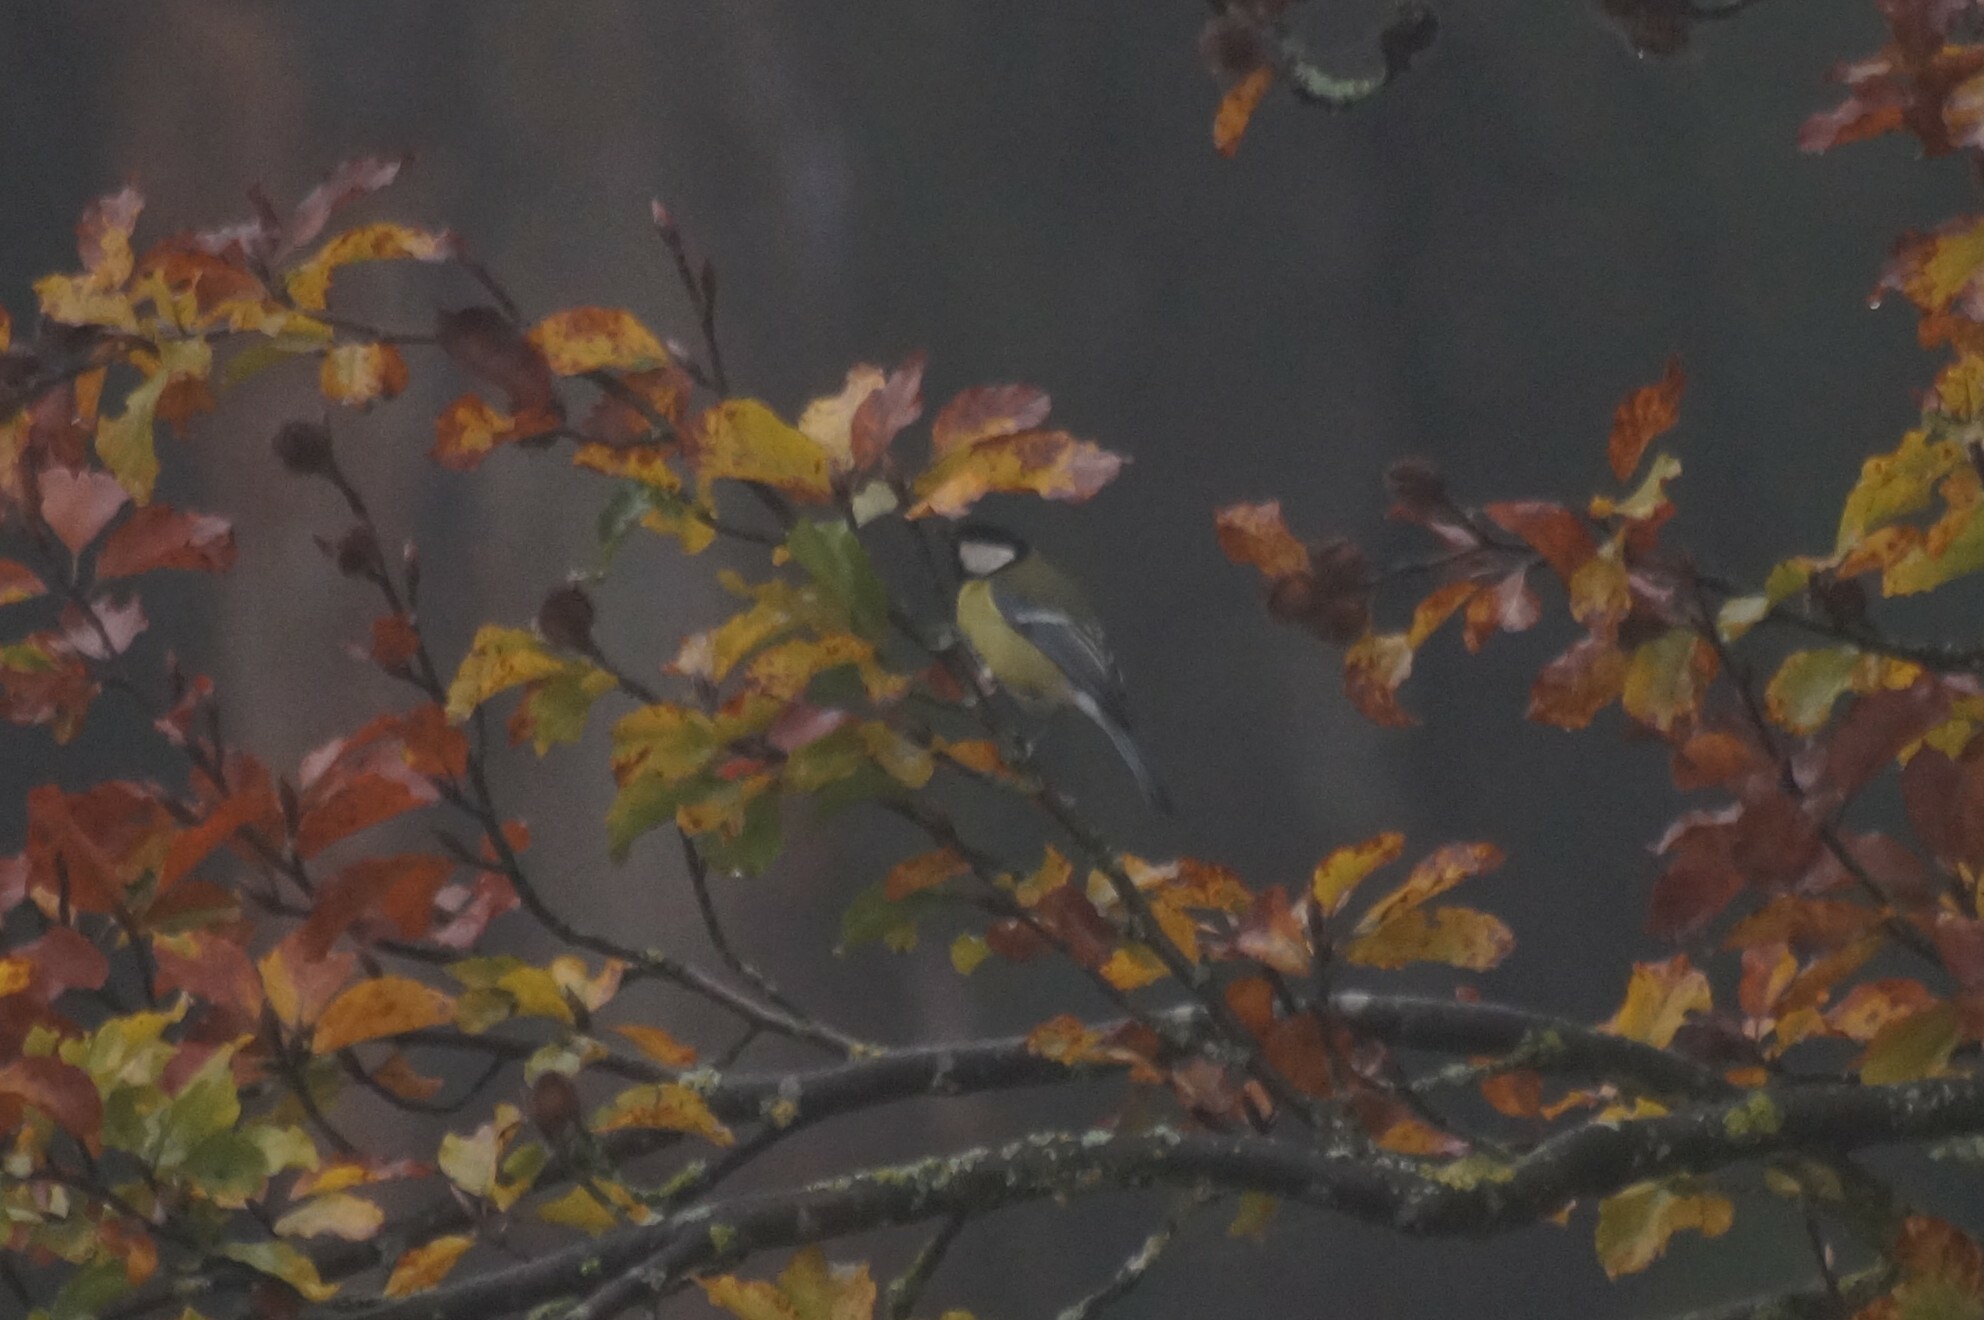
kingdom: Animalia
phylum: Chordata
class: Aves
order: Passeriformes
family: Paridae
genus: Parus
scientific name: Parus major
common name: Great tit
